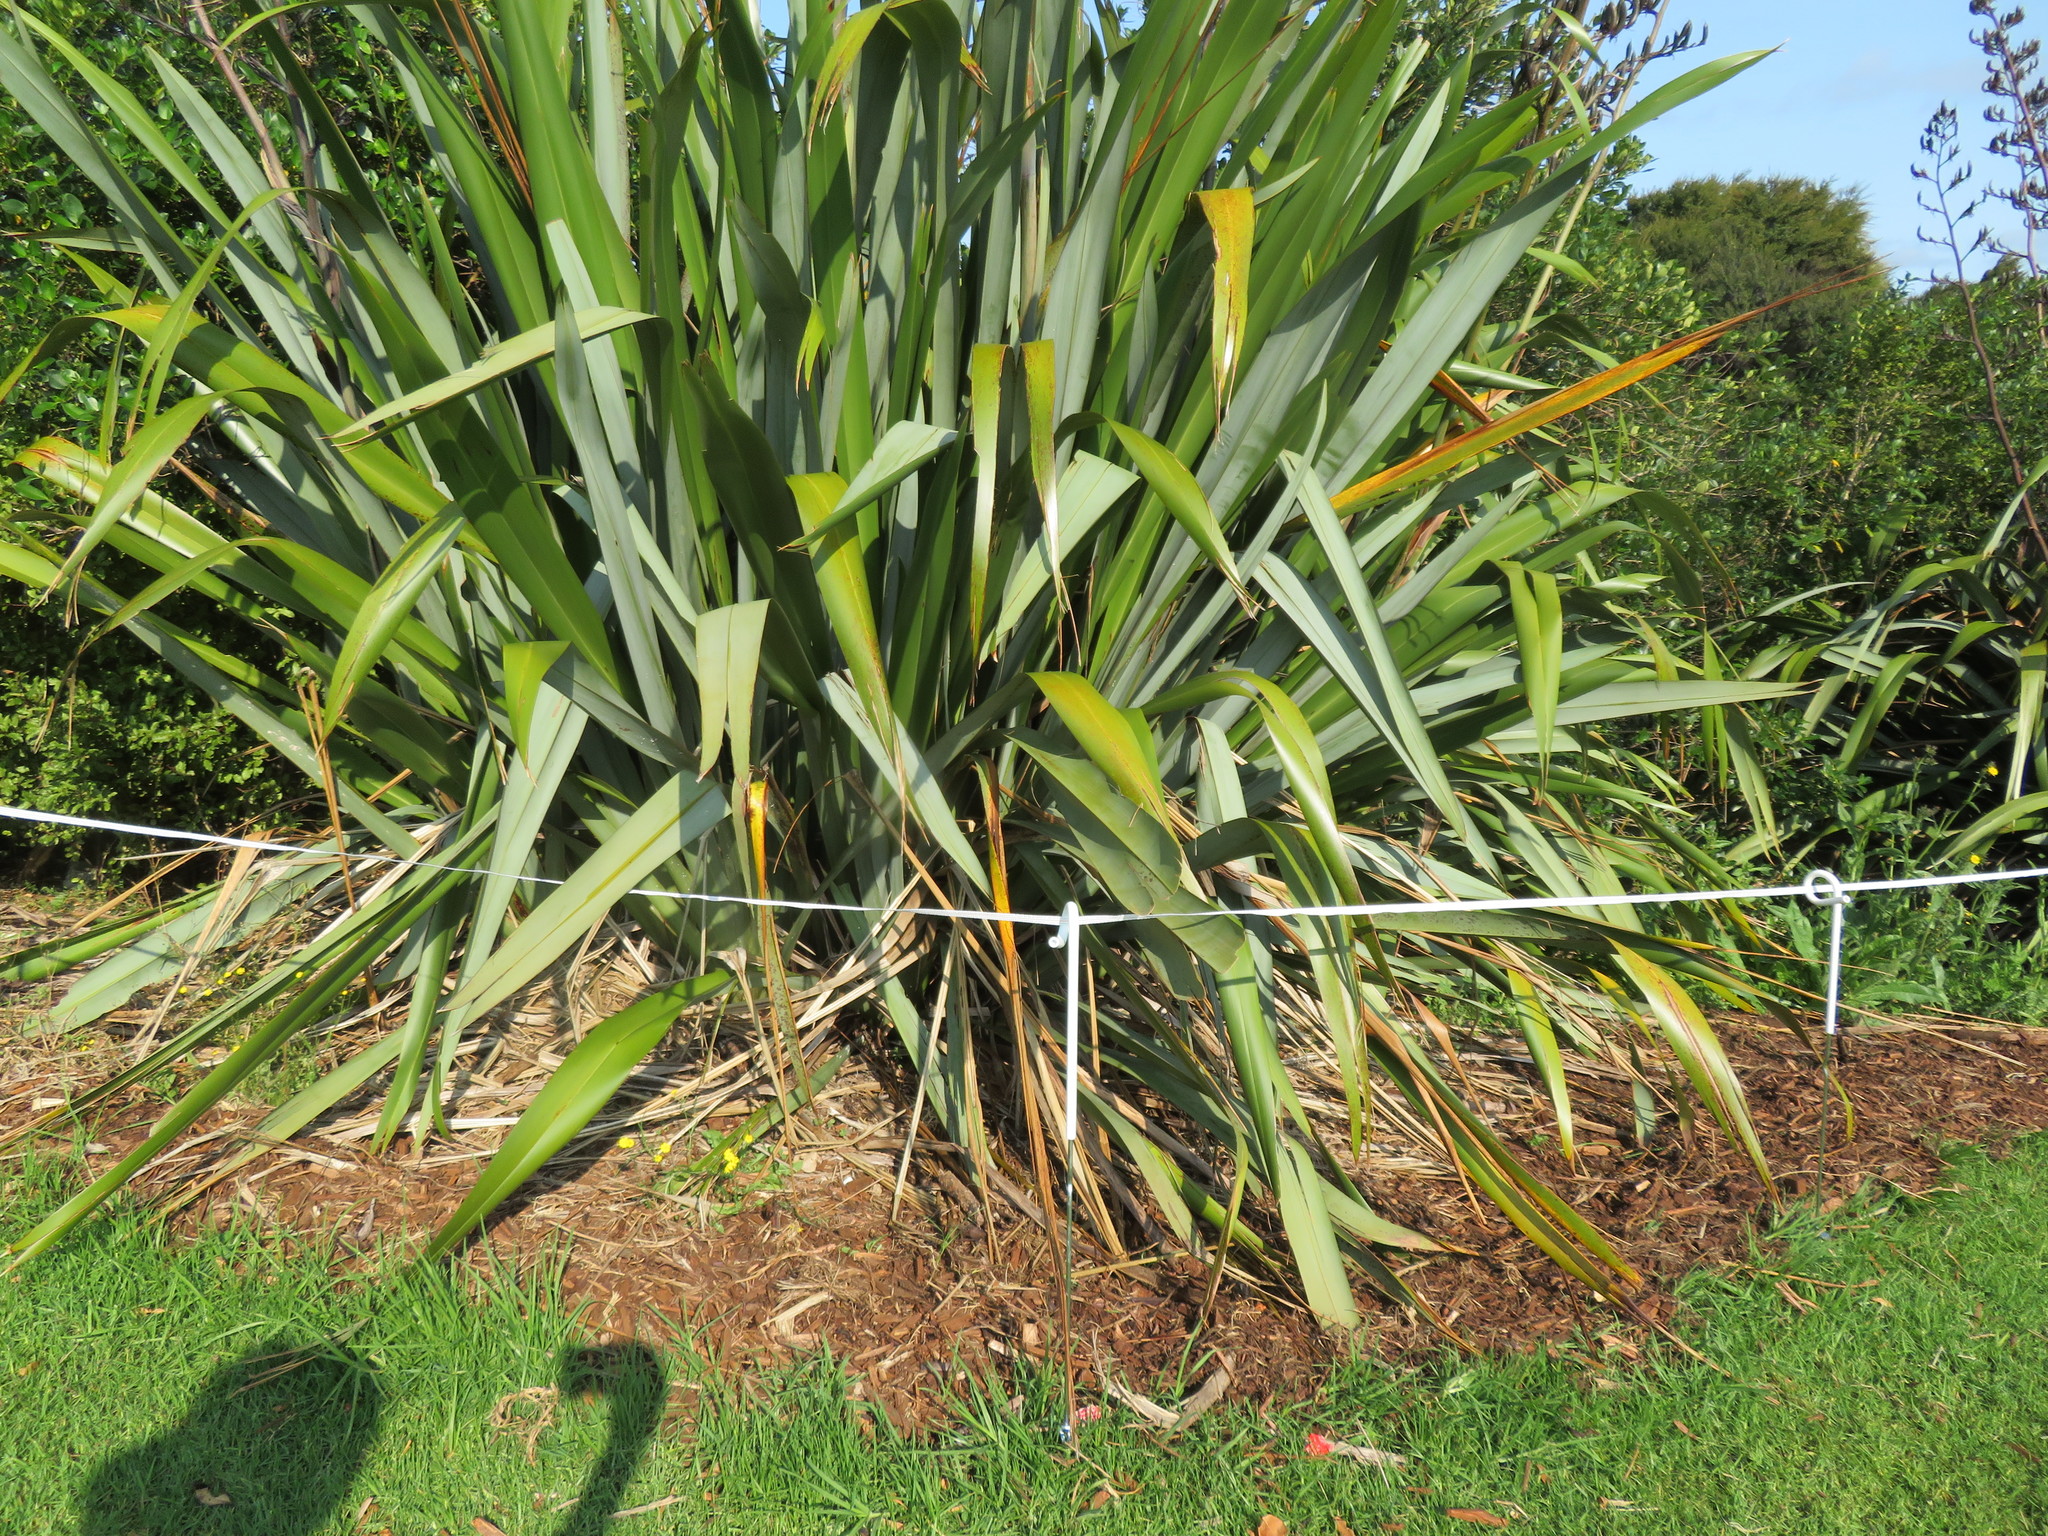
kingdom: Plantae
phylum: Tracheophyta
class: Liliopsida
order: Asparagales
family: Asphodelaceae
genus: Phormium
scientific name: Phormium tenax
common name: New zealand flax
